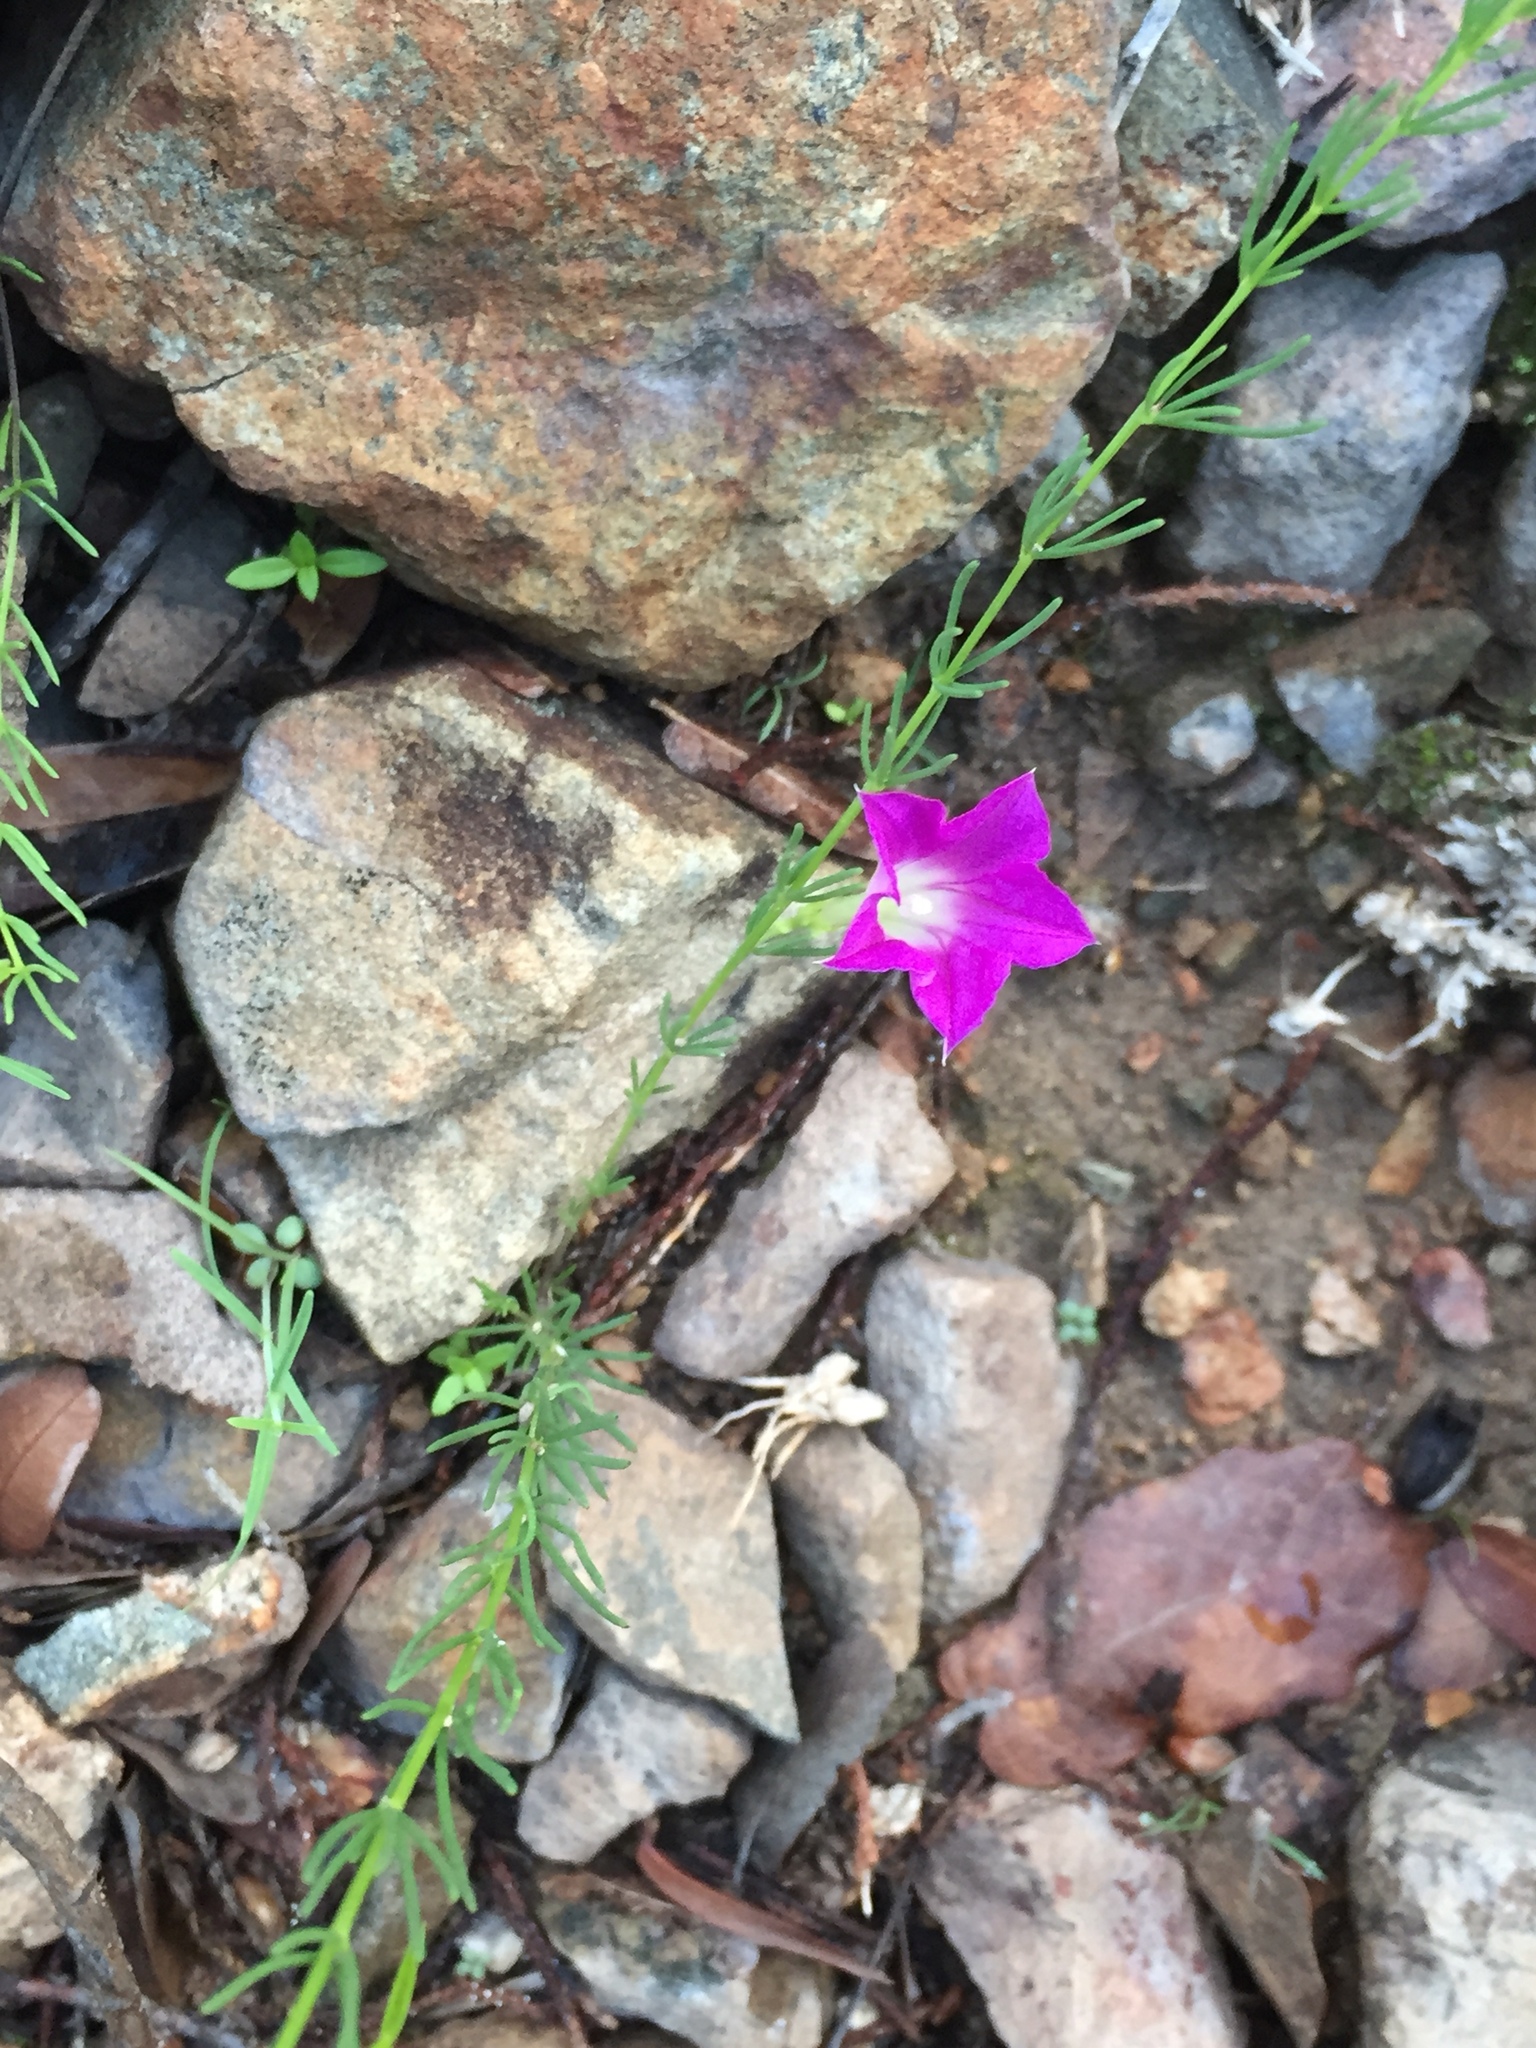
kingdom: Plantae
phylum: Tracheophyta
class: Magnoliopsida
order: Solanales
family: Convolvulaceae
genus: Ipomoea
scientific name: Ipomoea capillacea
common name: Purple morning-glory
